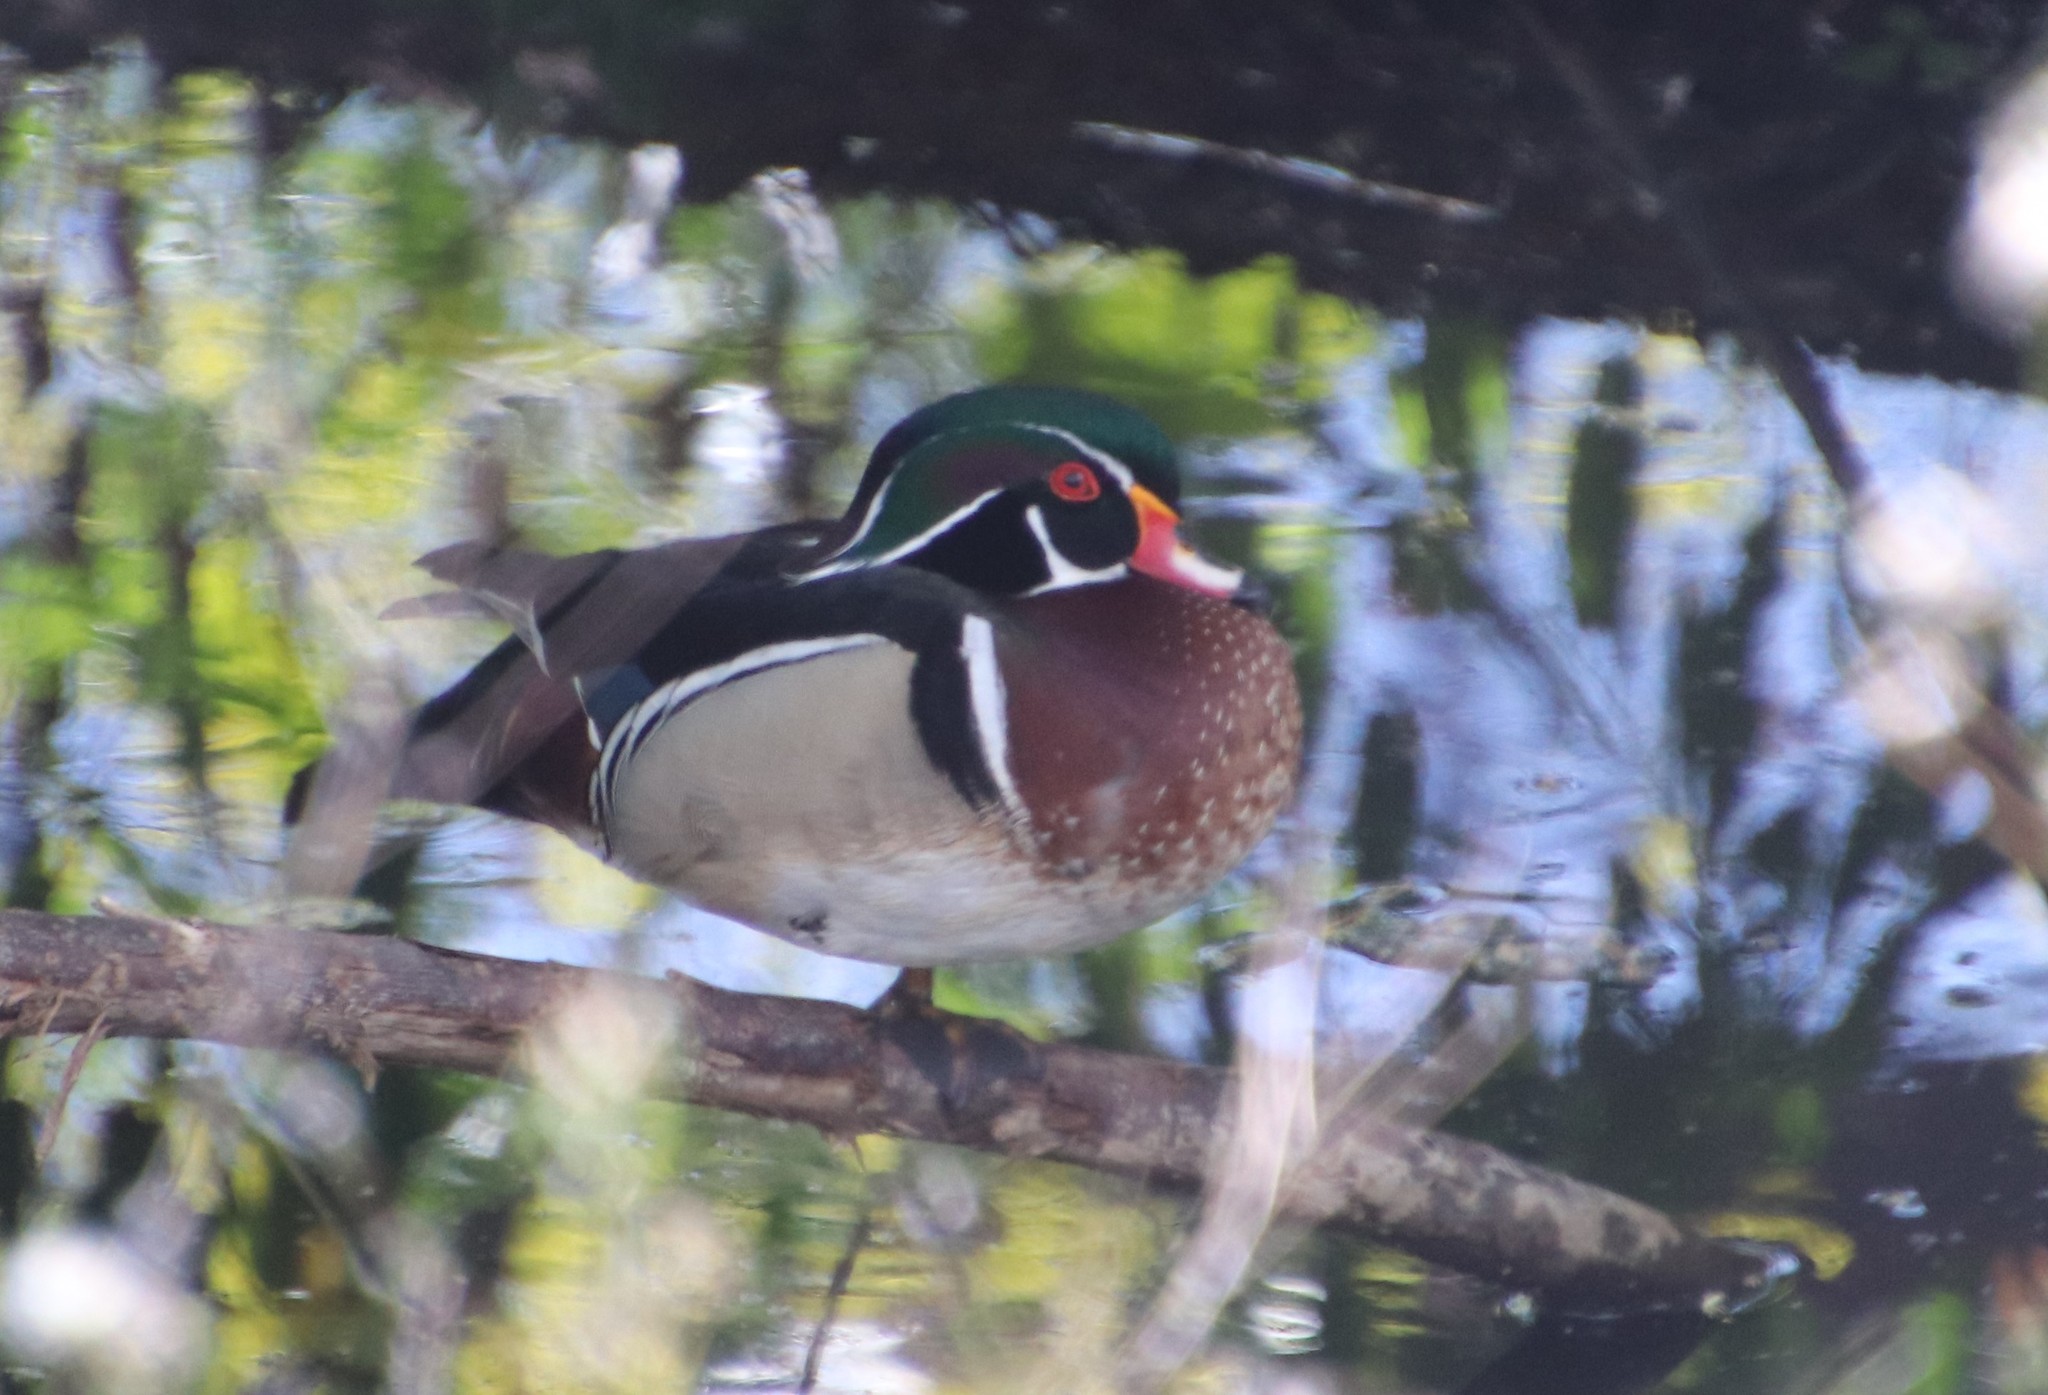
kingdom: Animalia
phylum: Chordata
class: Aves
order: Anseriformes
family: Anatidae
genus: Aix
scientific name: Aix sponsa
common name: Wood duck
